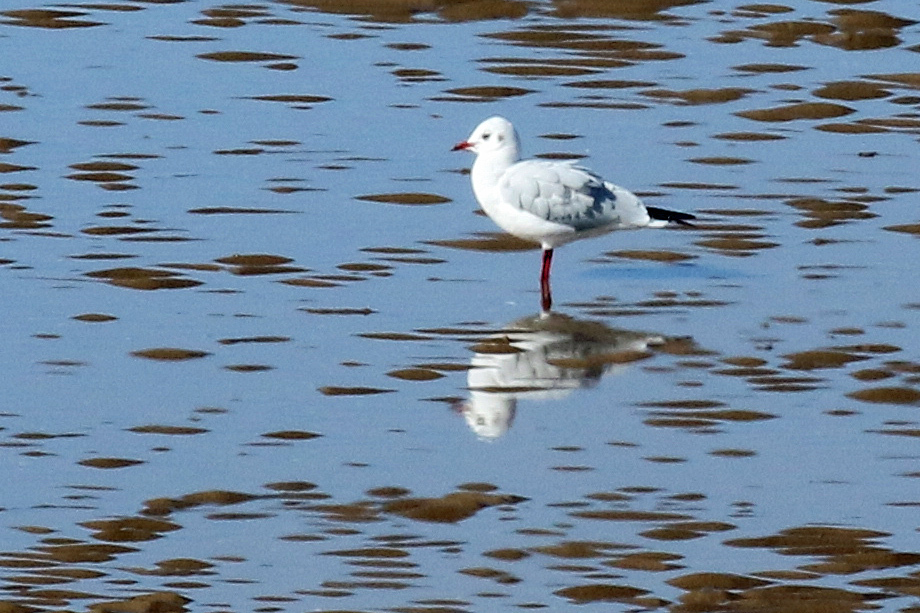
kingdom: Animalia
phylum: Chordata
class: Aves
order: Charadriiformes
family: Laridae
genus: Chroicocephalus
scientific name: Chroicocephalus ridibundus
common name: Black-headed gull
